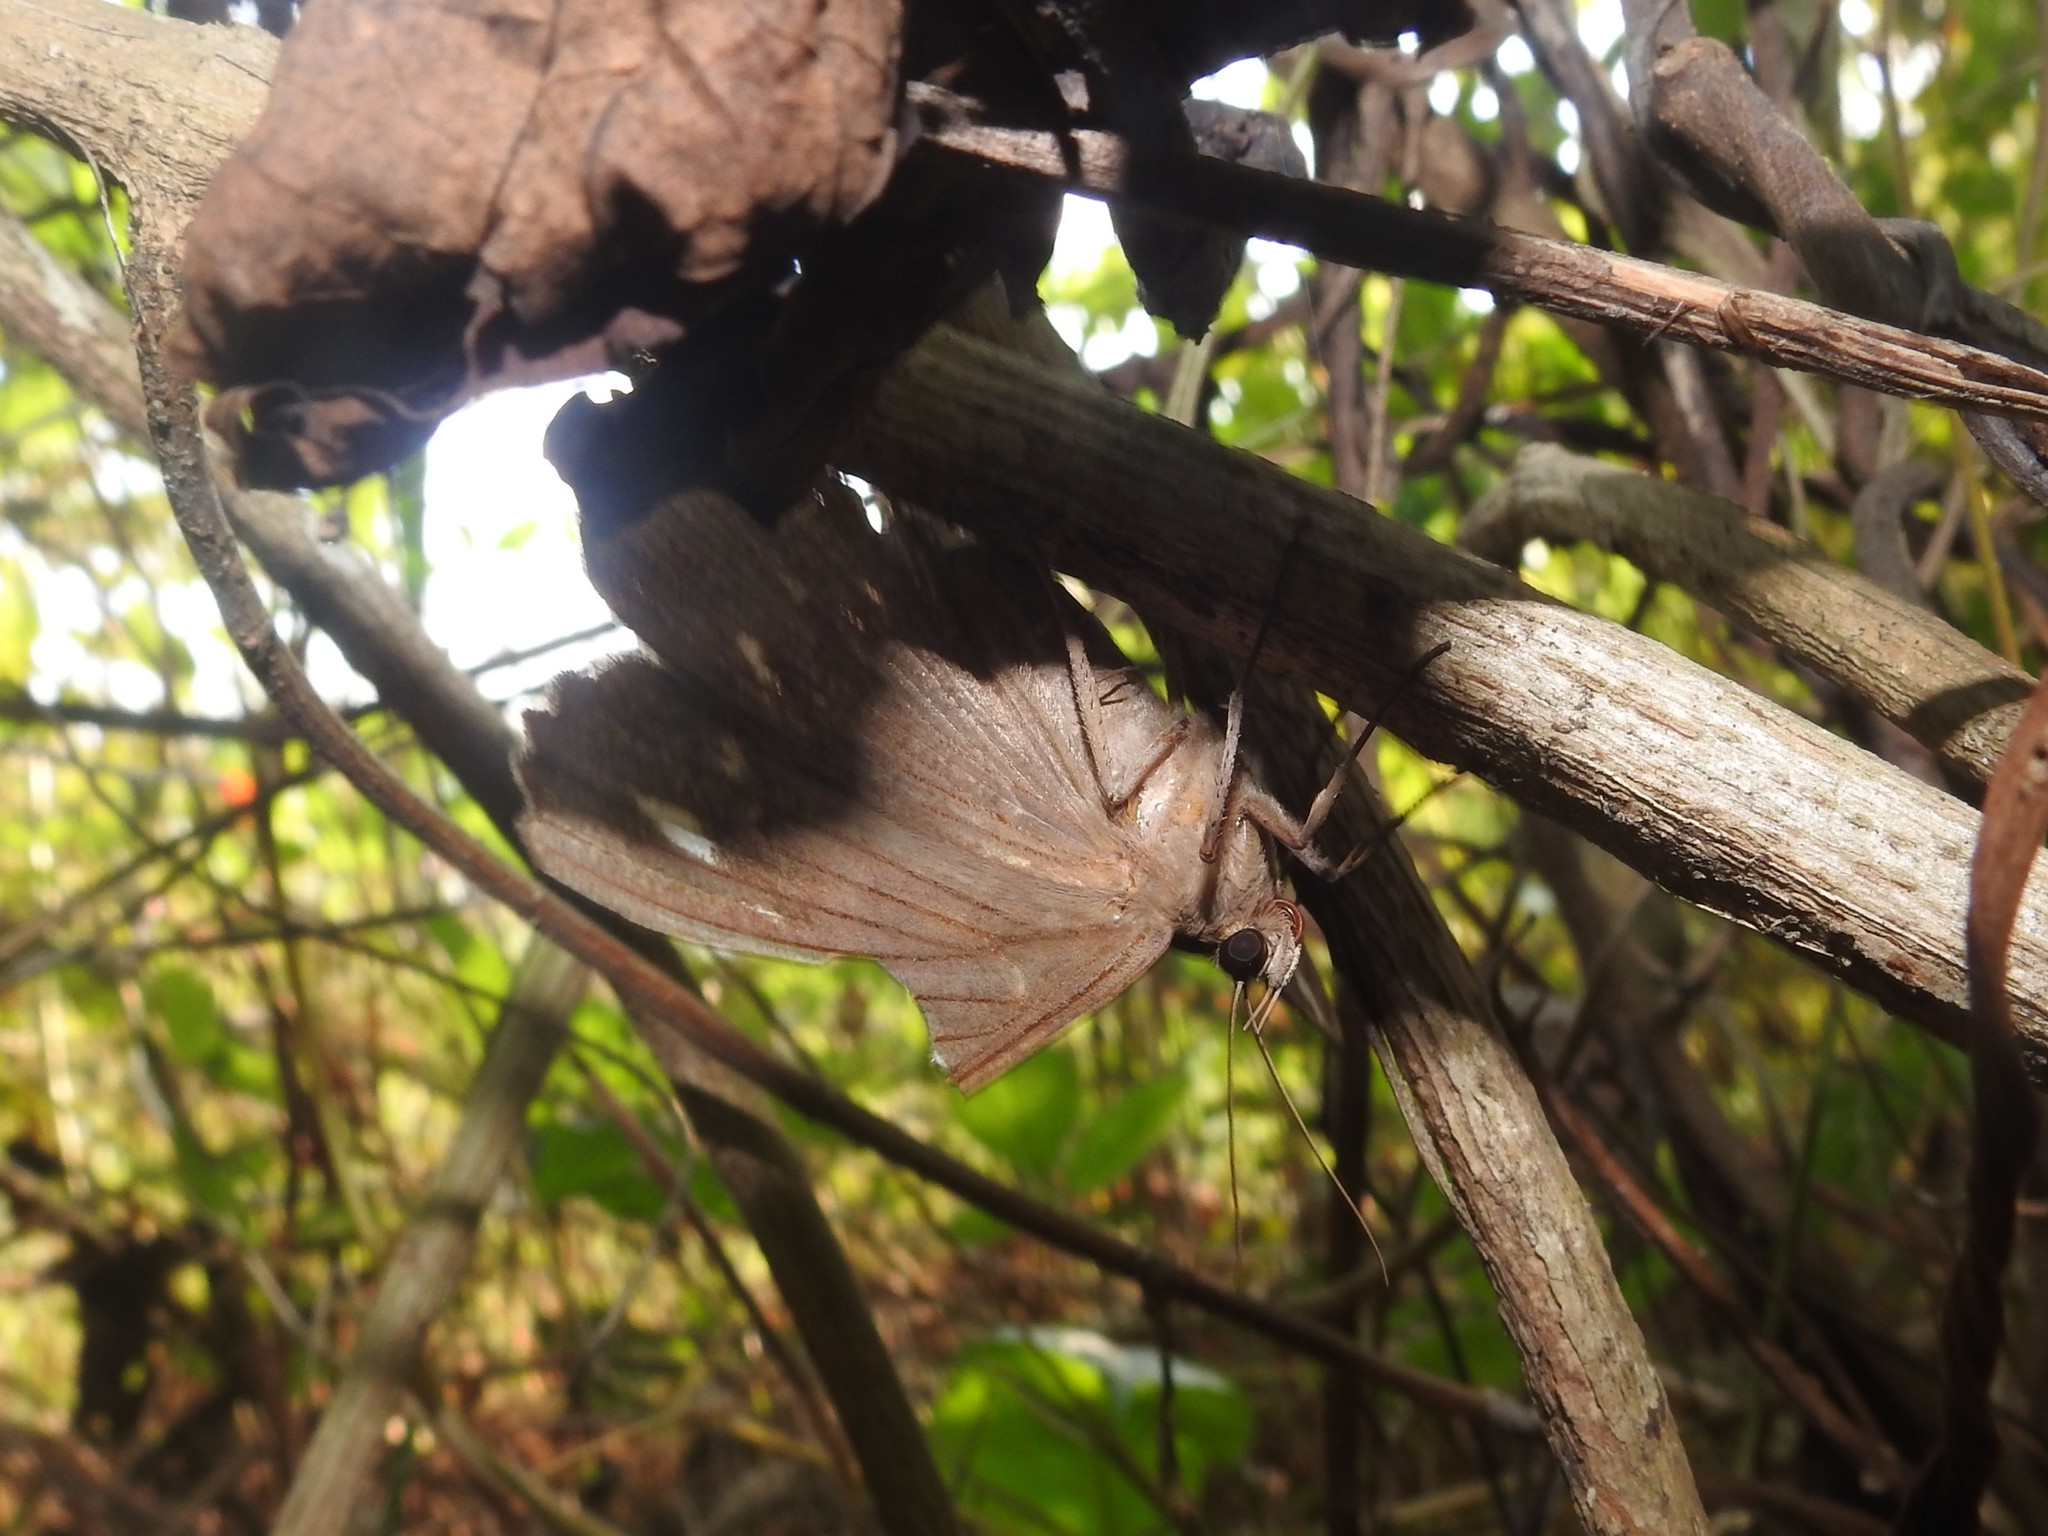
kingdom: Animalia
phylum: Arthropoda
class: Insecta
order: Lepidoptera
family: Erebidae
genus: Erebus
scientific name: Erebus hieroglyphica
